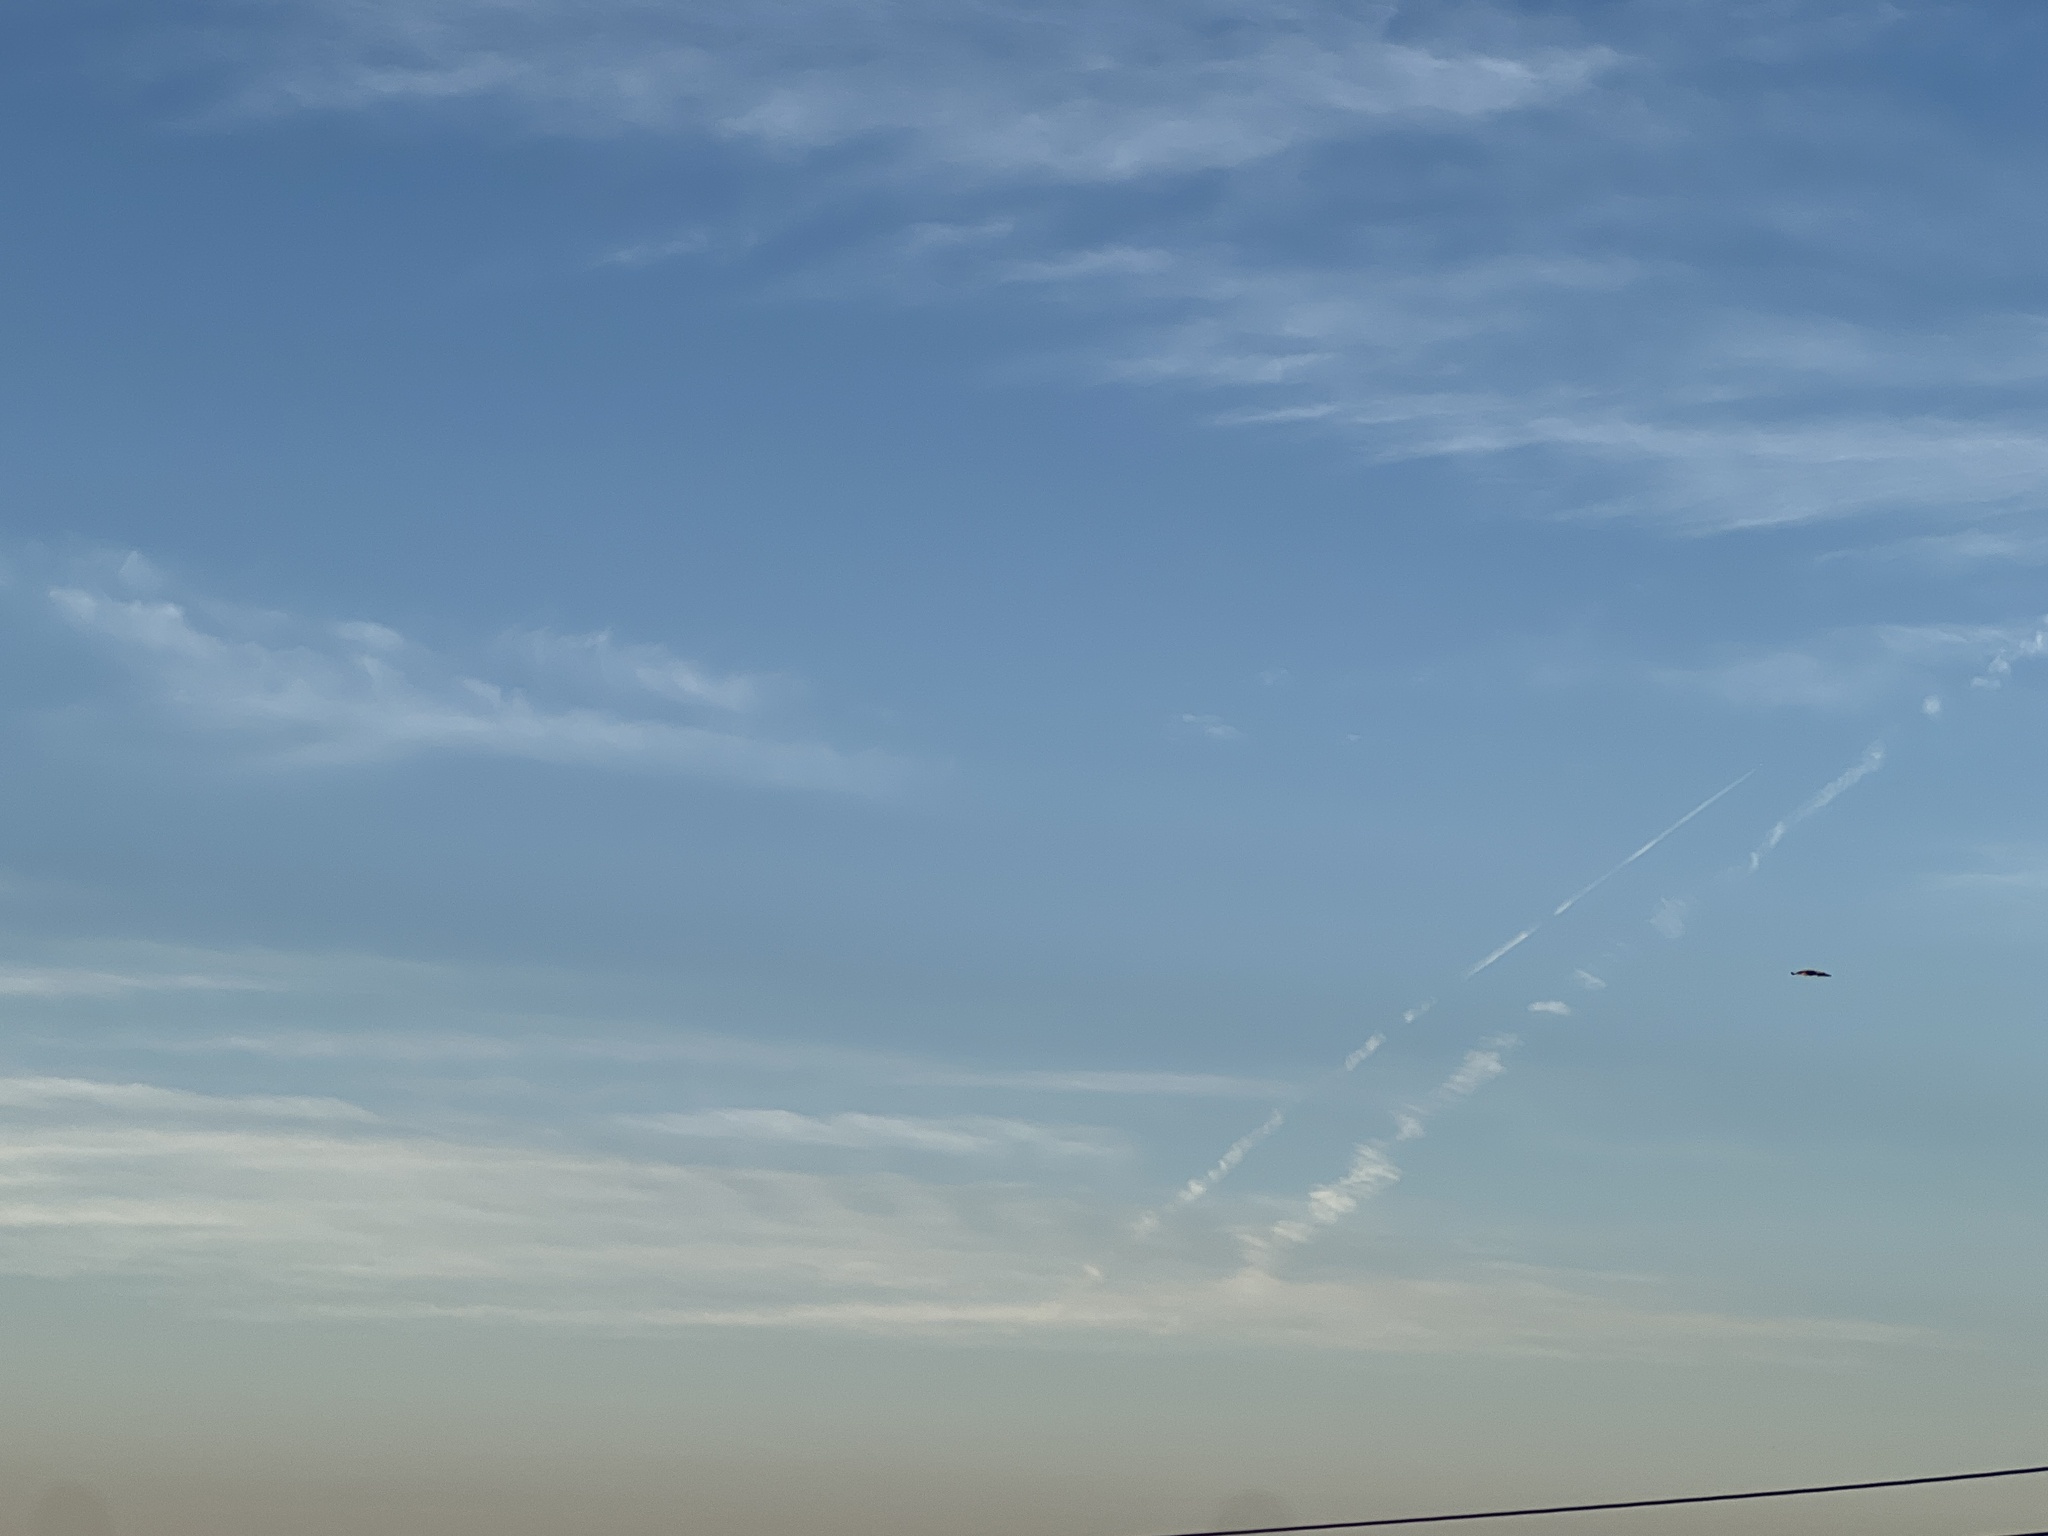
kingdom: Animalia
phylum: Chordata
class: Aves
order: Falconiformes
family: Falconidae
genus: Caracara
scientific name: Caracara plancus
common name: Southern caracara
